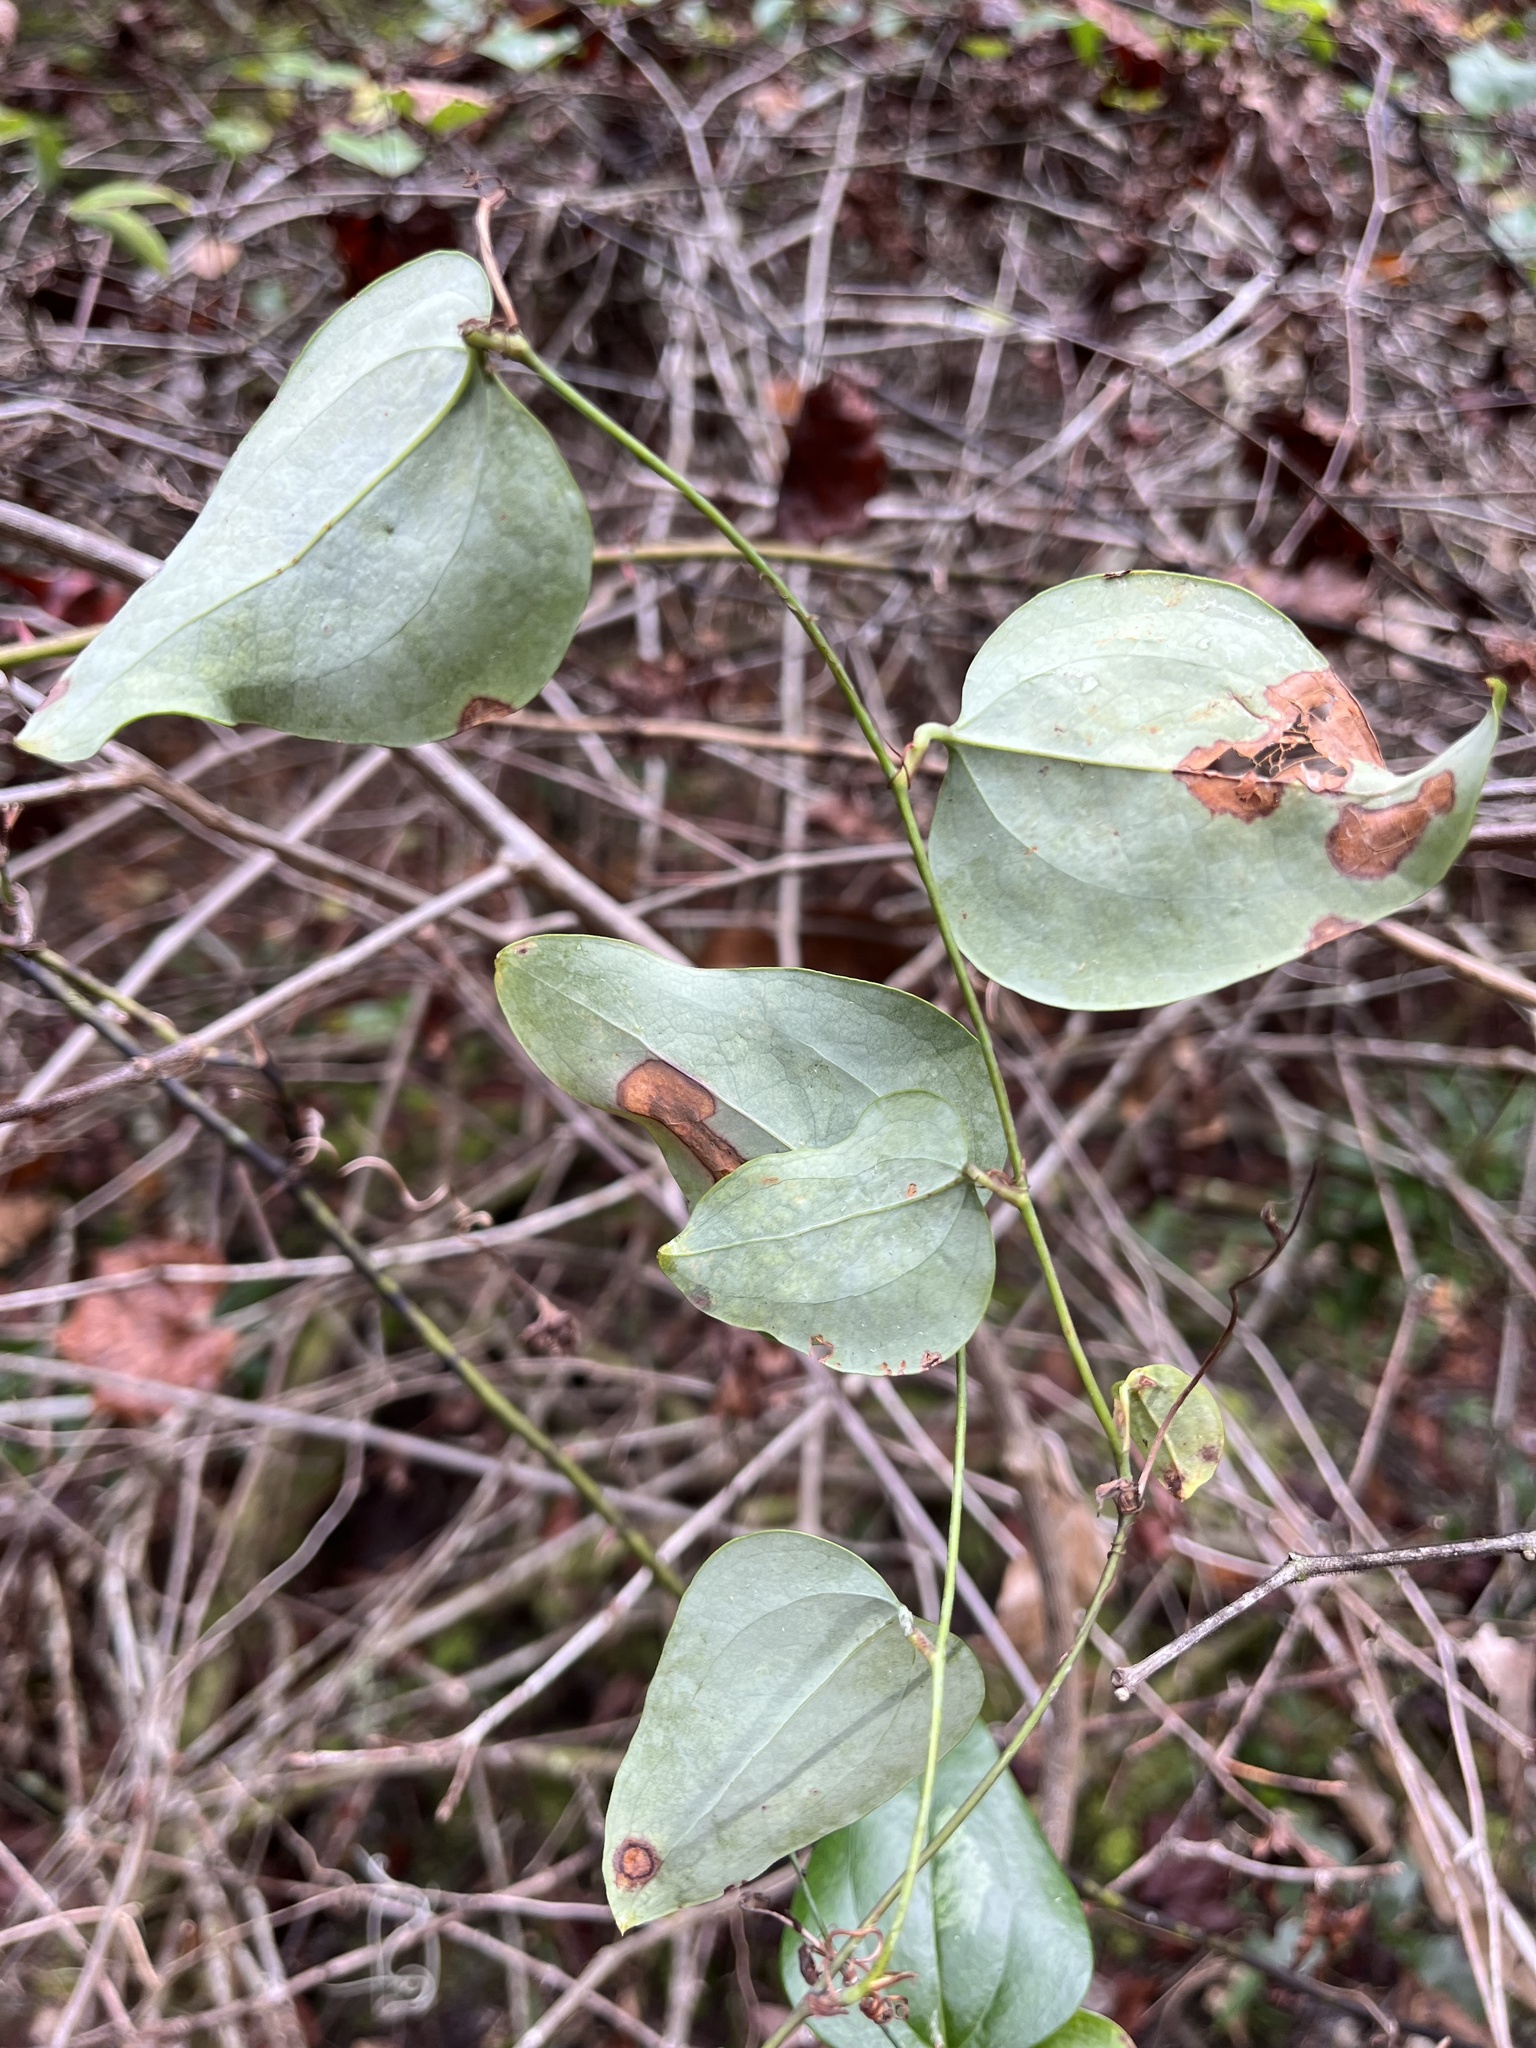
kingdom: Plantae
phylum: Tracheophyta
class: Liliopsida
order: Liliales
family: Smilacaceae
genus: Smilax
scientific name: Smilax glauca
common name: Cat greenbrier
